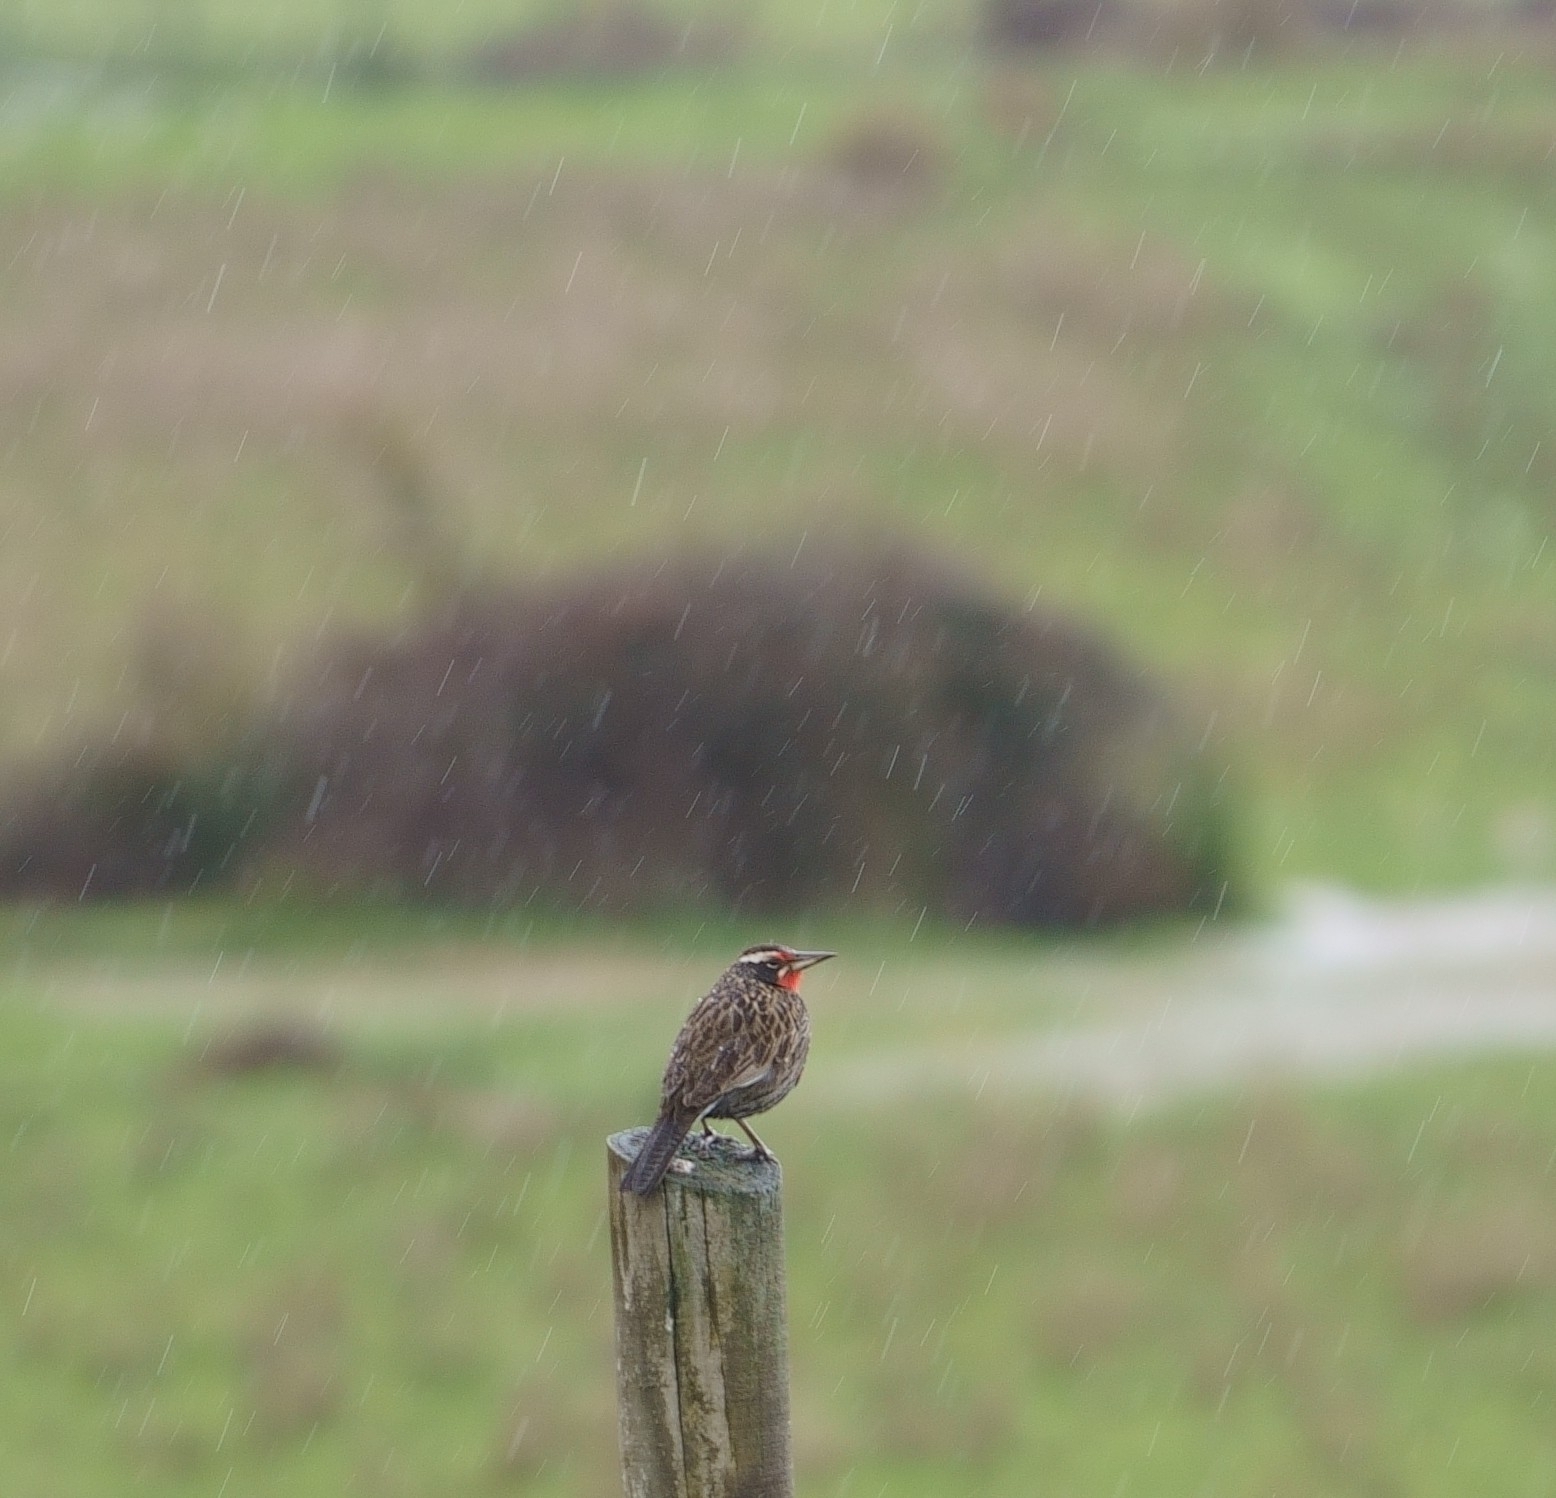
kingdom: Animalia
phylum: Chordata
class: Aves
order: Passeriformes
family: Icteridae
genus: Sturnella
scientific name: Sturnella loyca
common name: Long-tailed meadowlark
